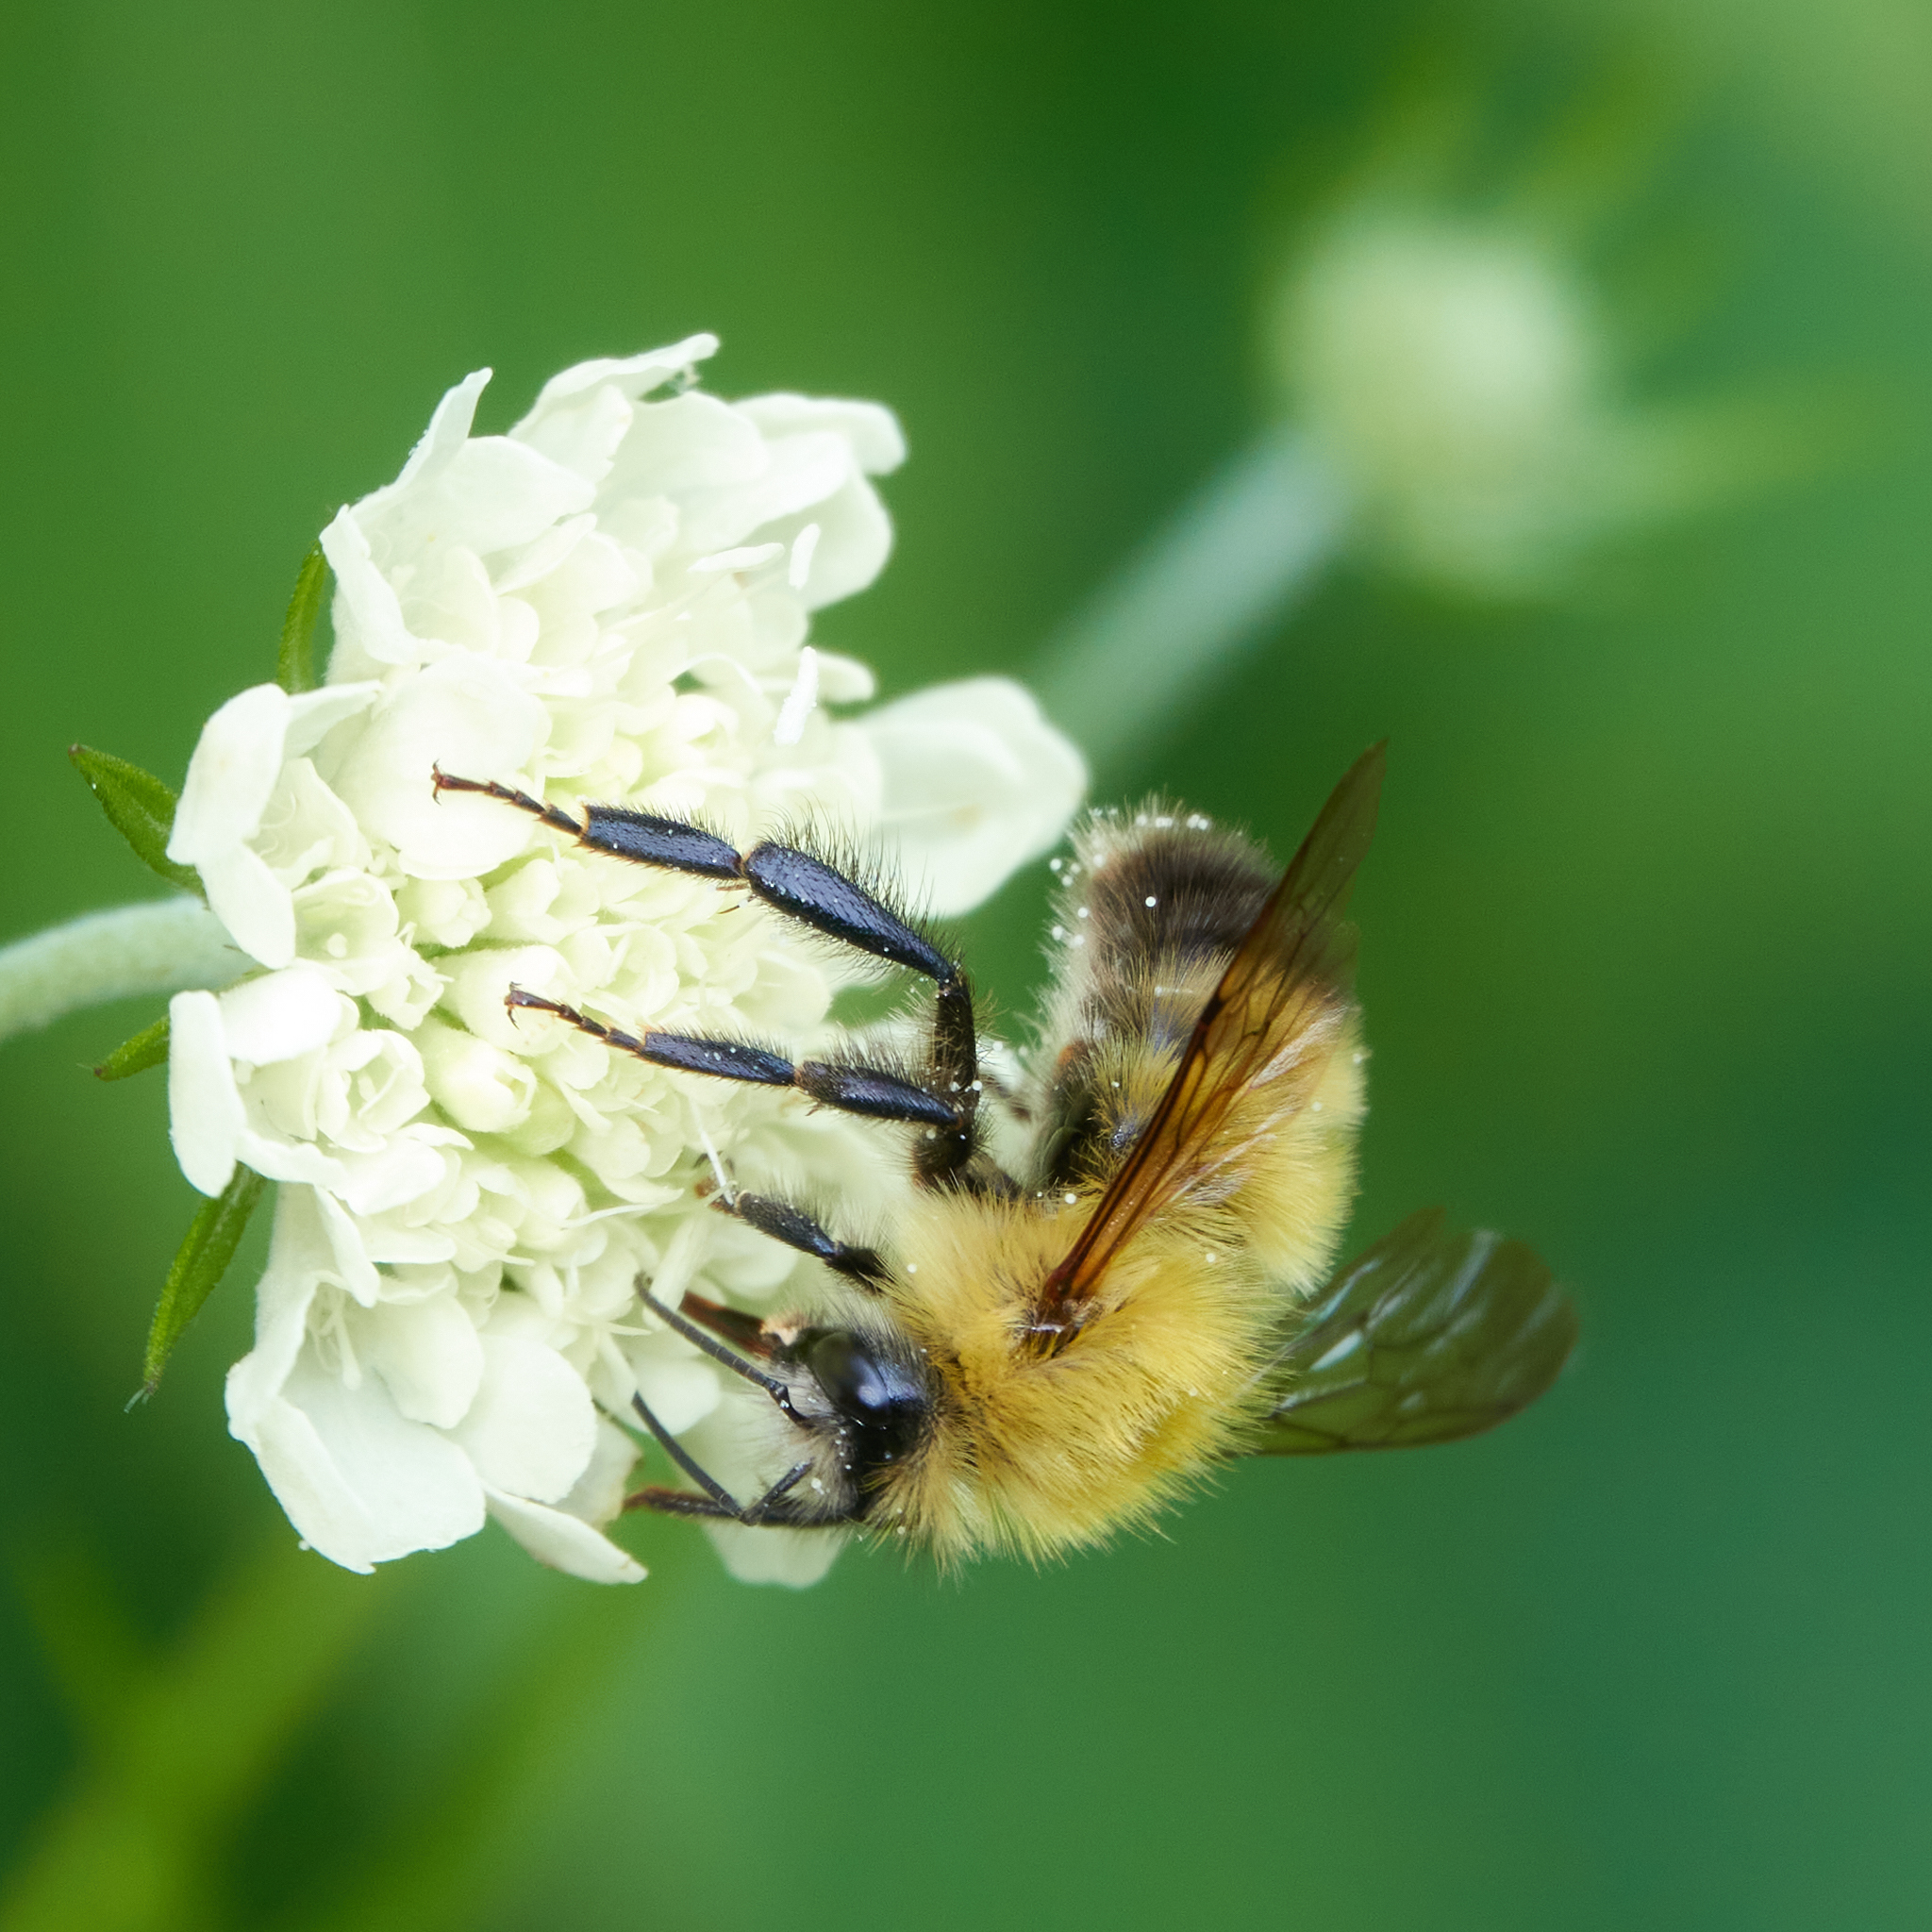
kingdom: Animalia
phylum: Arthropoda
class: Insecta
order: Hymenoptera
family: Apidae
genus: Bombus
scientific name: Bombus perplexus
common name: Confusing bumble bee
